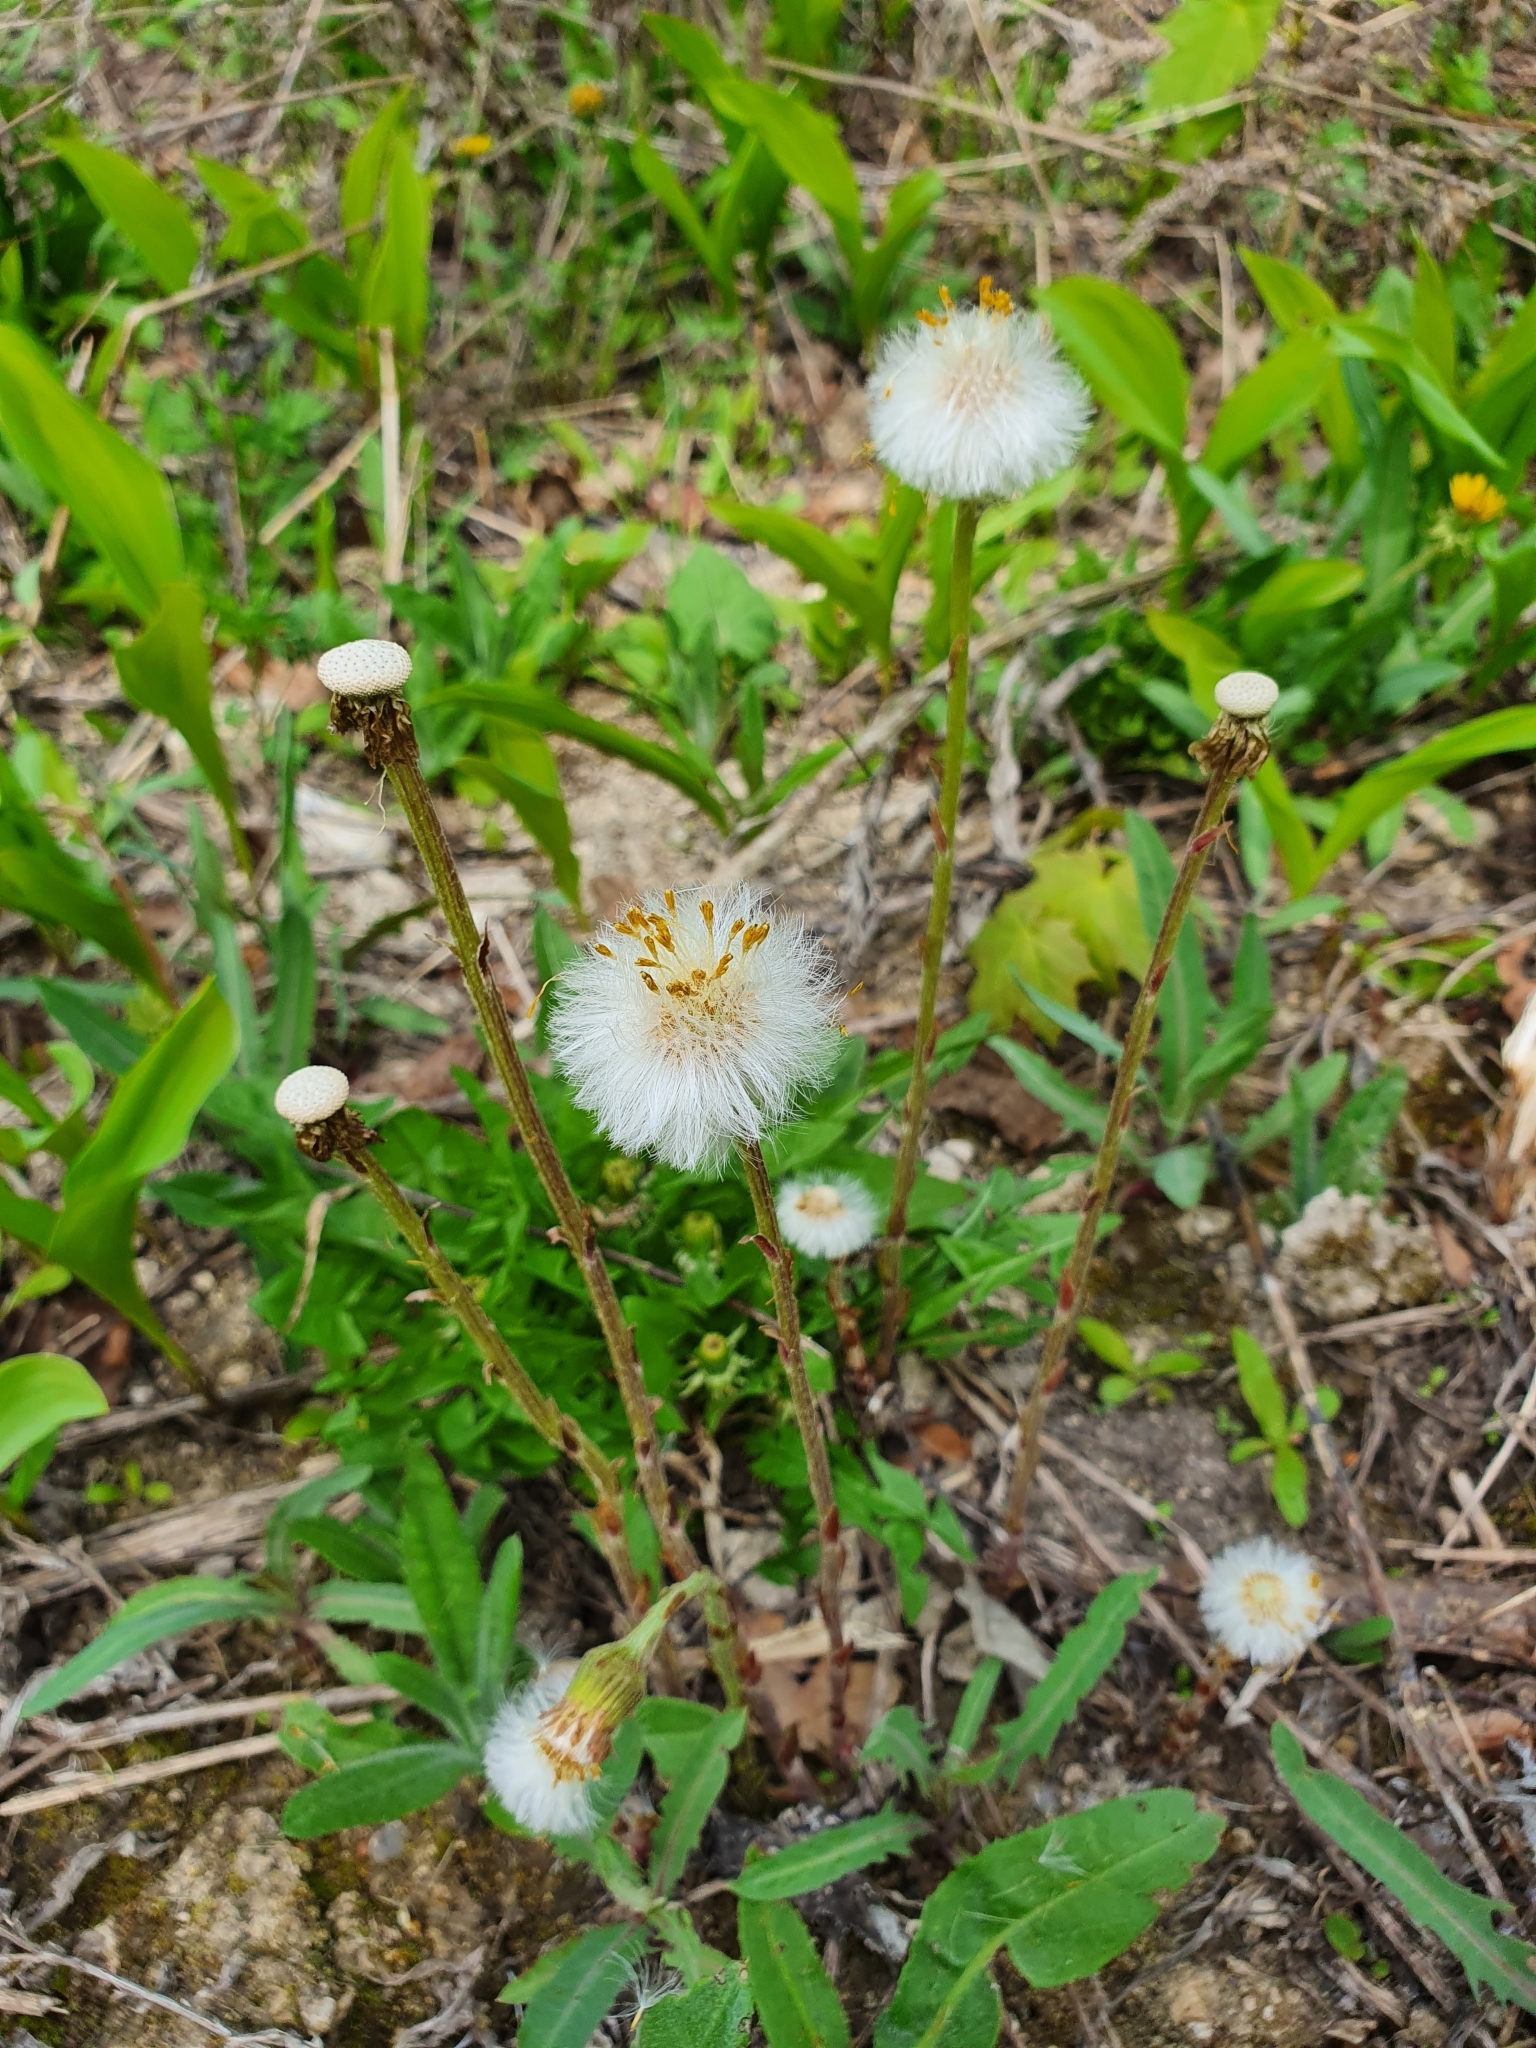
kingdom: Plantae
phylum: Tracheophyta
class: Magnoliopsida
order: Asterales
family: Asteraceae
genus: Tussilago
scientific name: Tussilago farfara
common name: Coltsfoot
